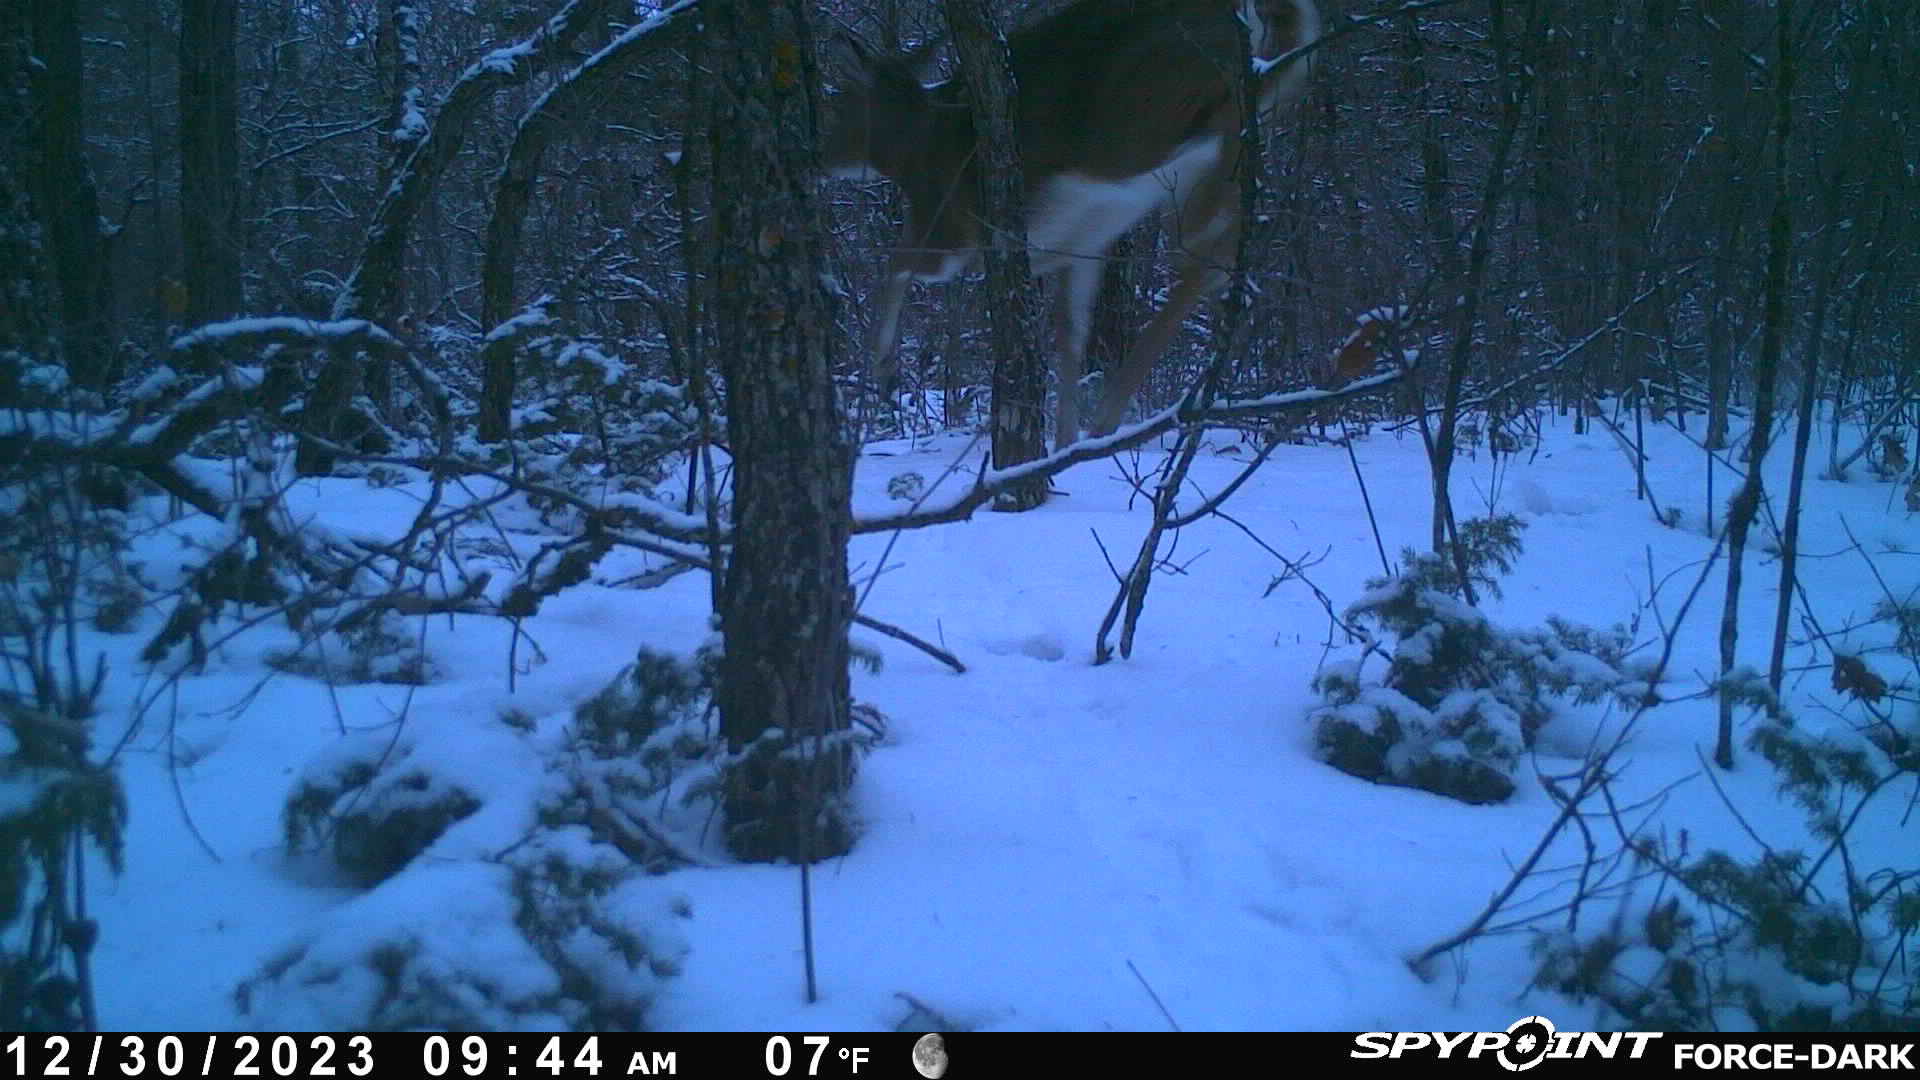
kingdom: Animalia
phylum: Chordata
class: Mammalia
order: Artiodactyla
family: Cervidae
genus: Odocoileus
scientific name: Odocoileus virginianus
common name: White-tailed deer
